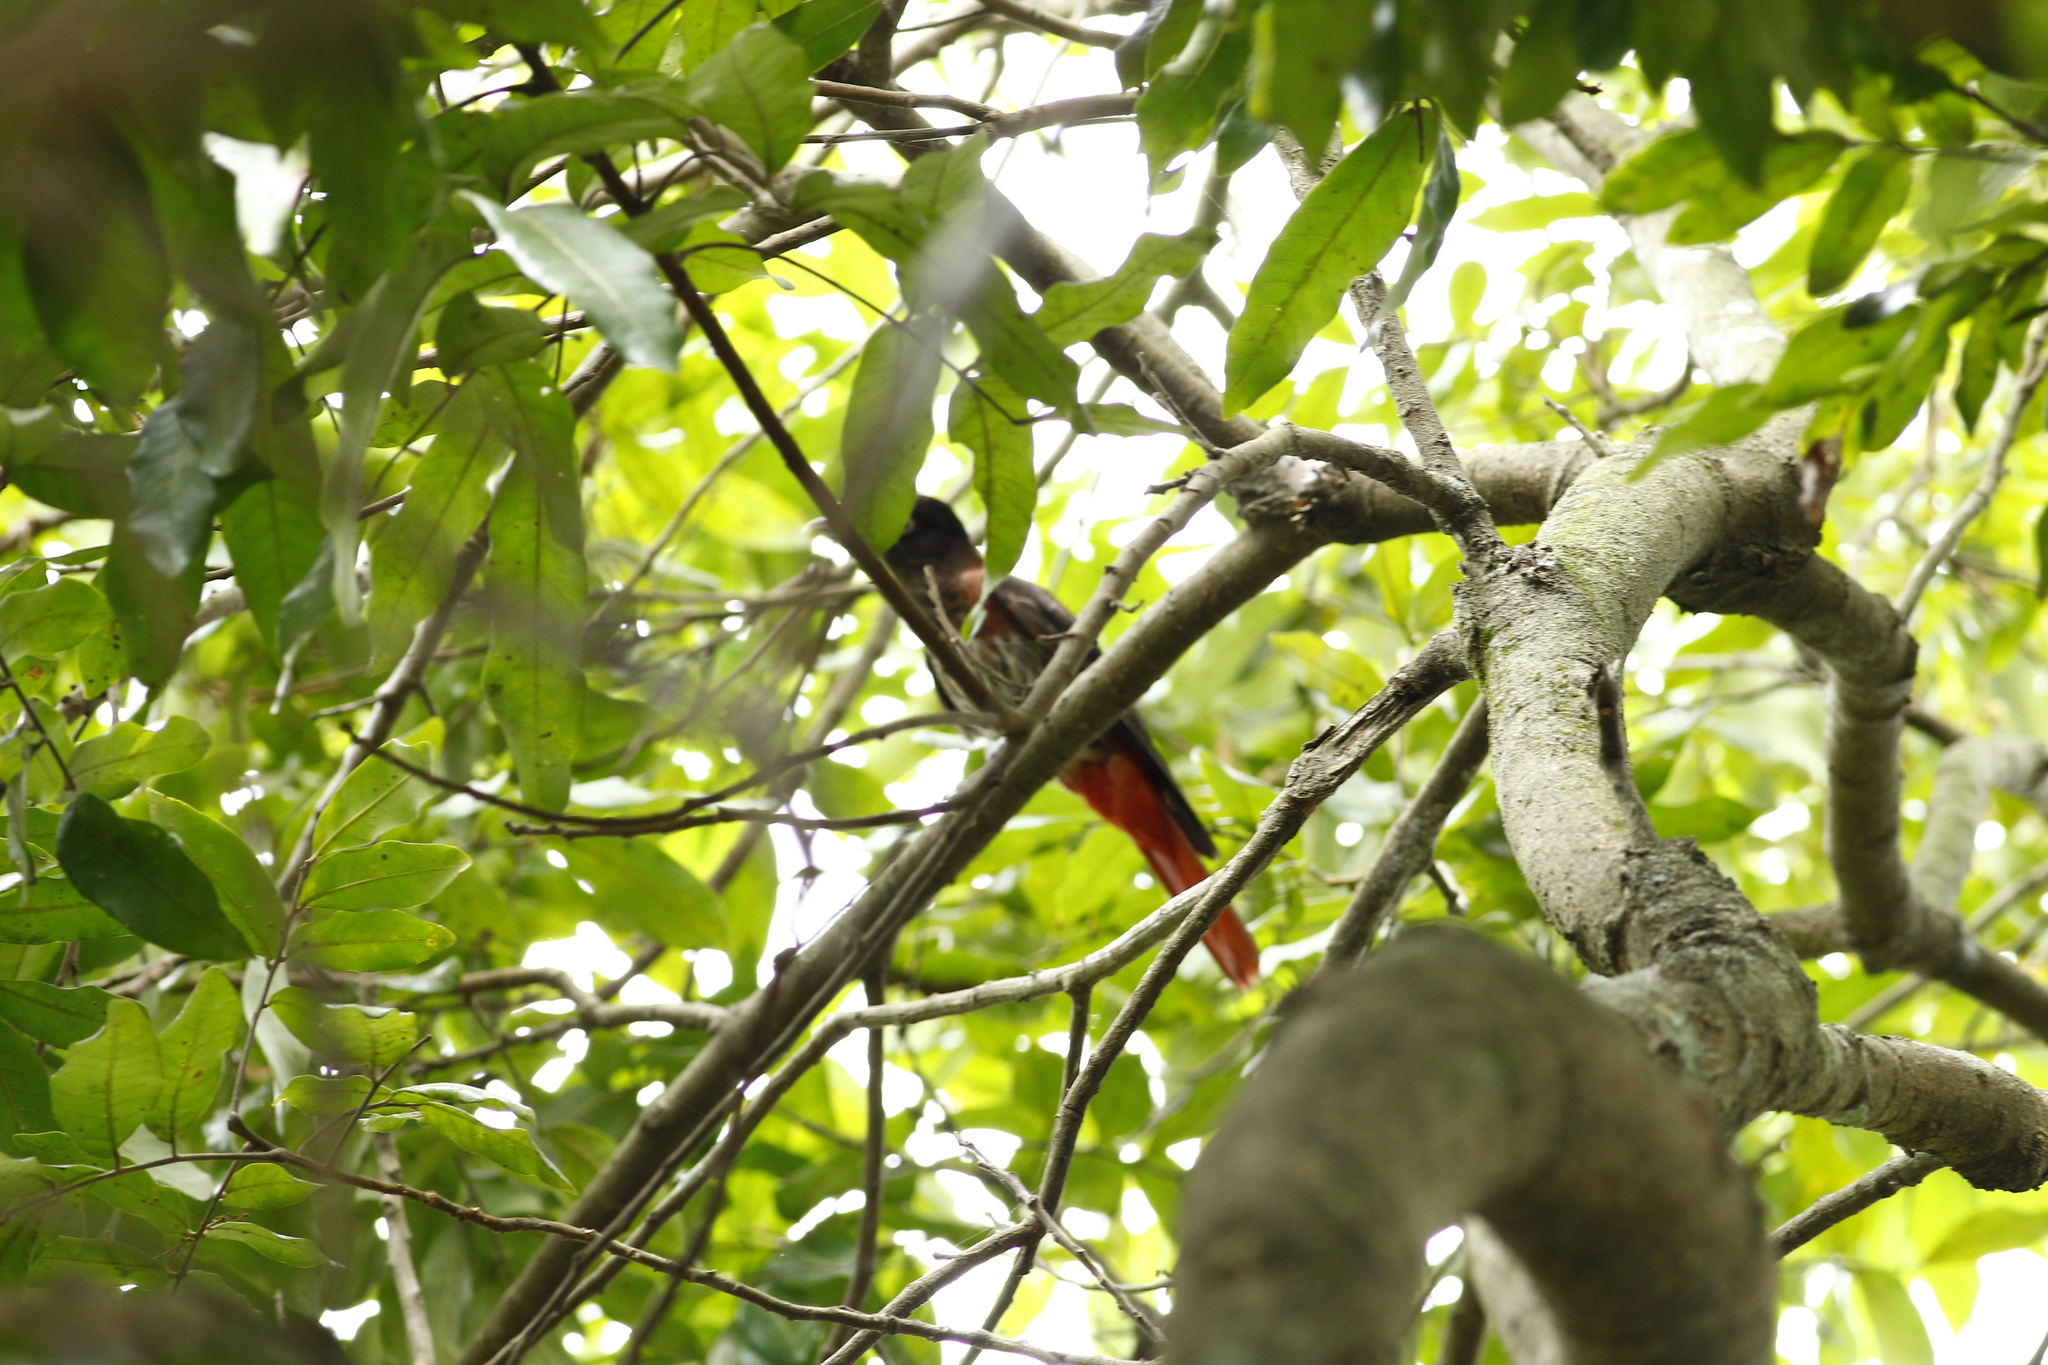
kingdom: Animalia
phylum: Chordata
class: Aves
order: Passeriformes
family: Oriolidae
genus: Oriolus
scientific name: Oriolus traillii
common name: Maroon oriole
